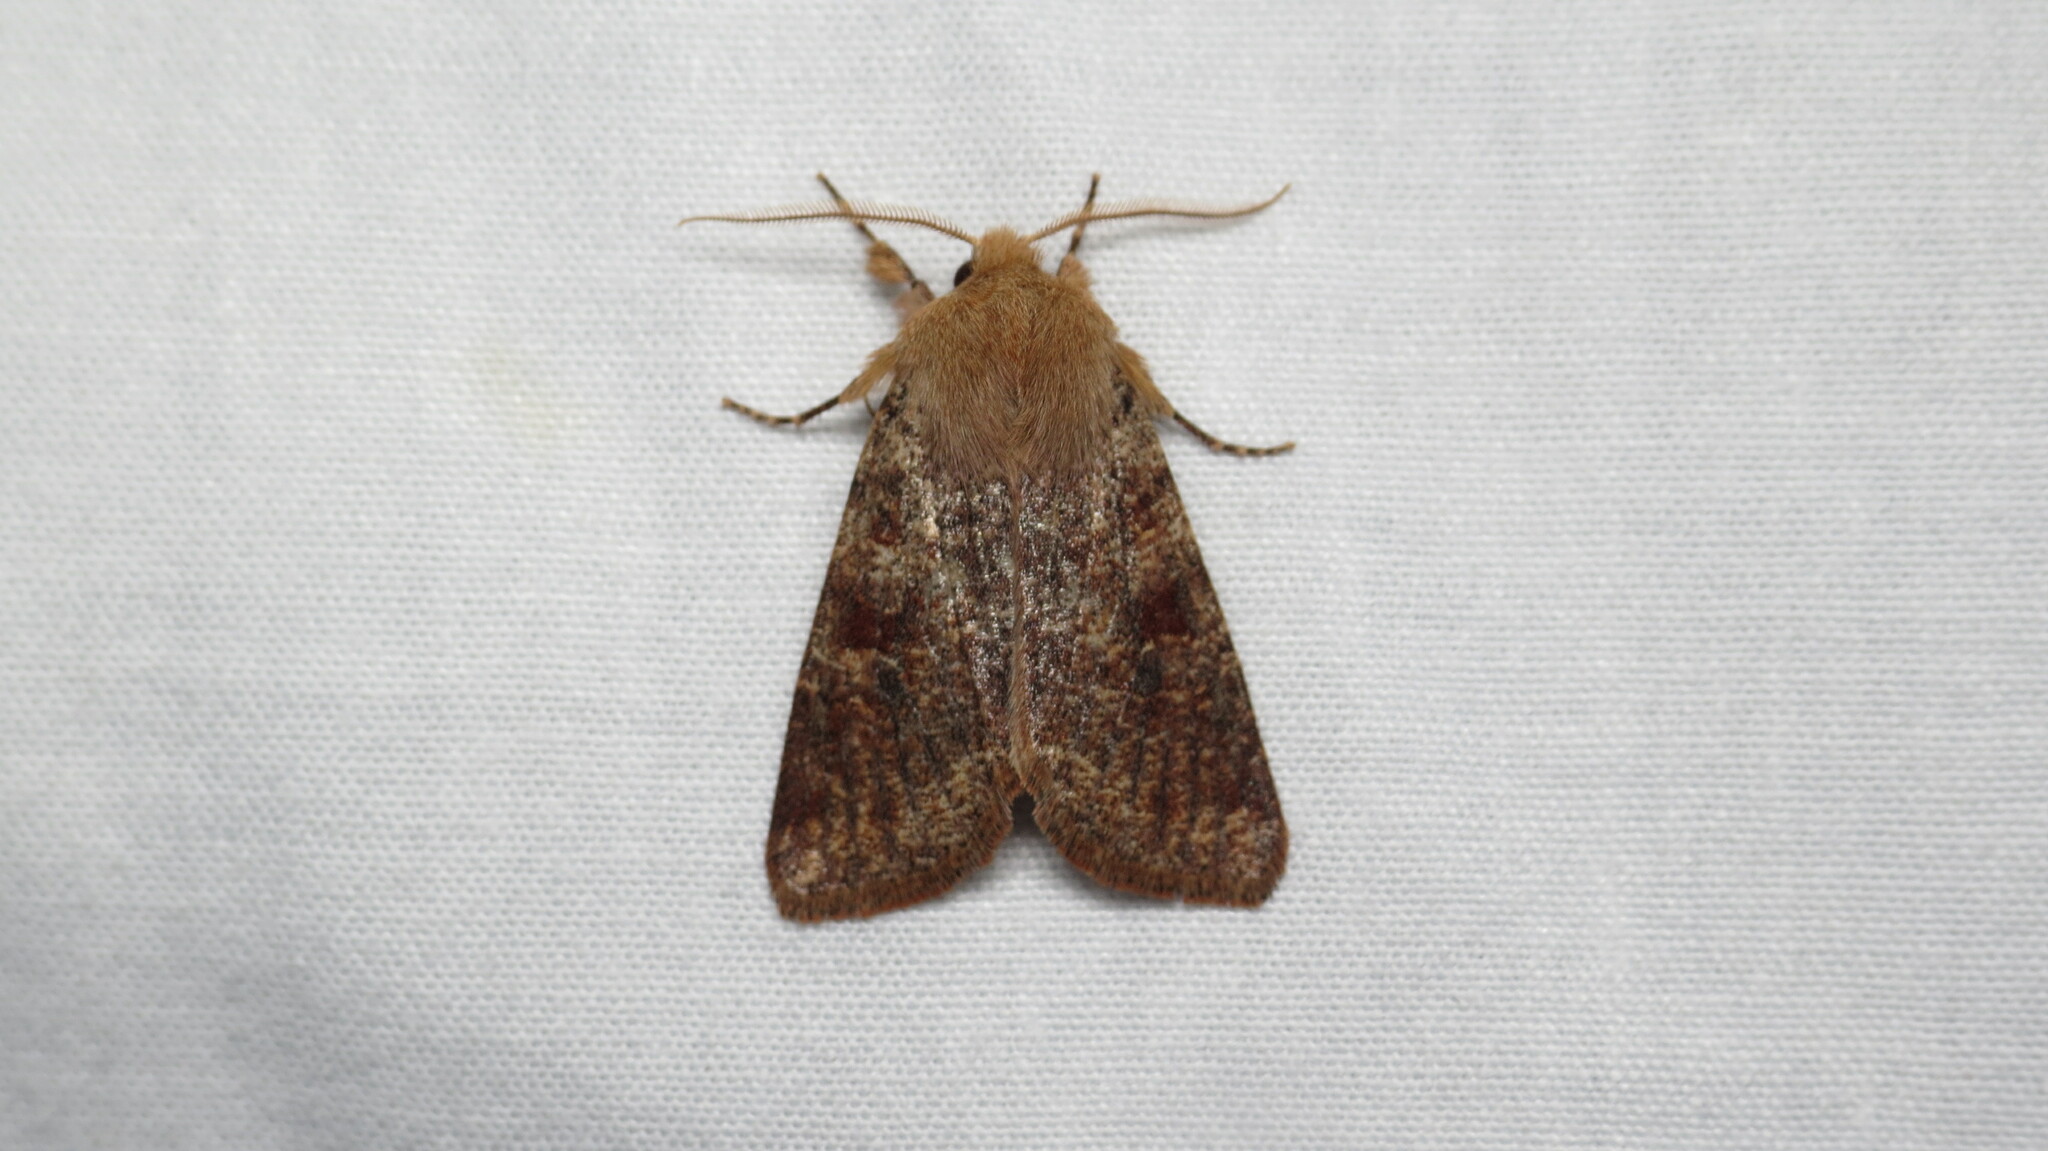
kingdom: Animalia
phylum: Arthropoda
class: Insecta
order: Lepidoptera
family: Noctuidae
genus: Orthosia
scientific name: Orthosia rubescens
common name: Ruby quaker
